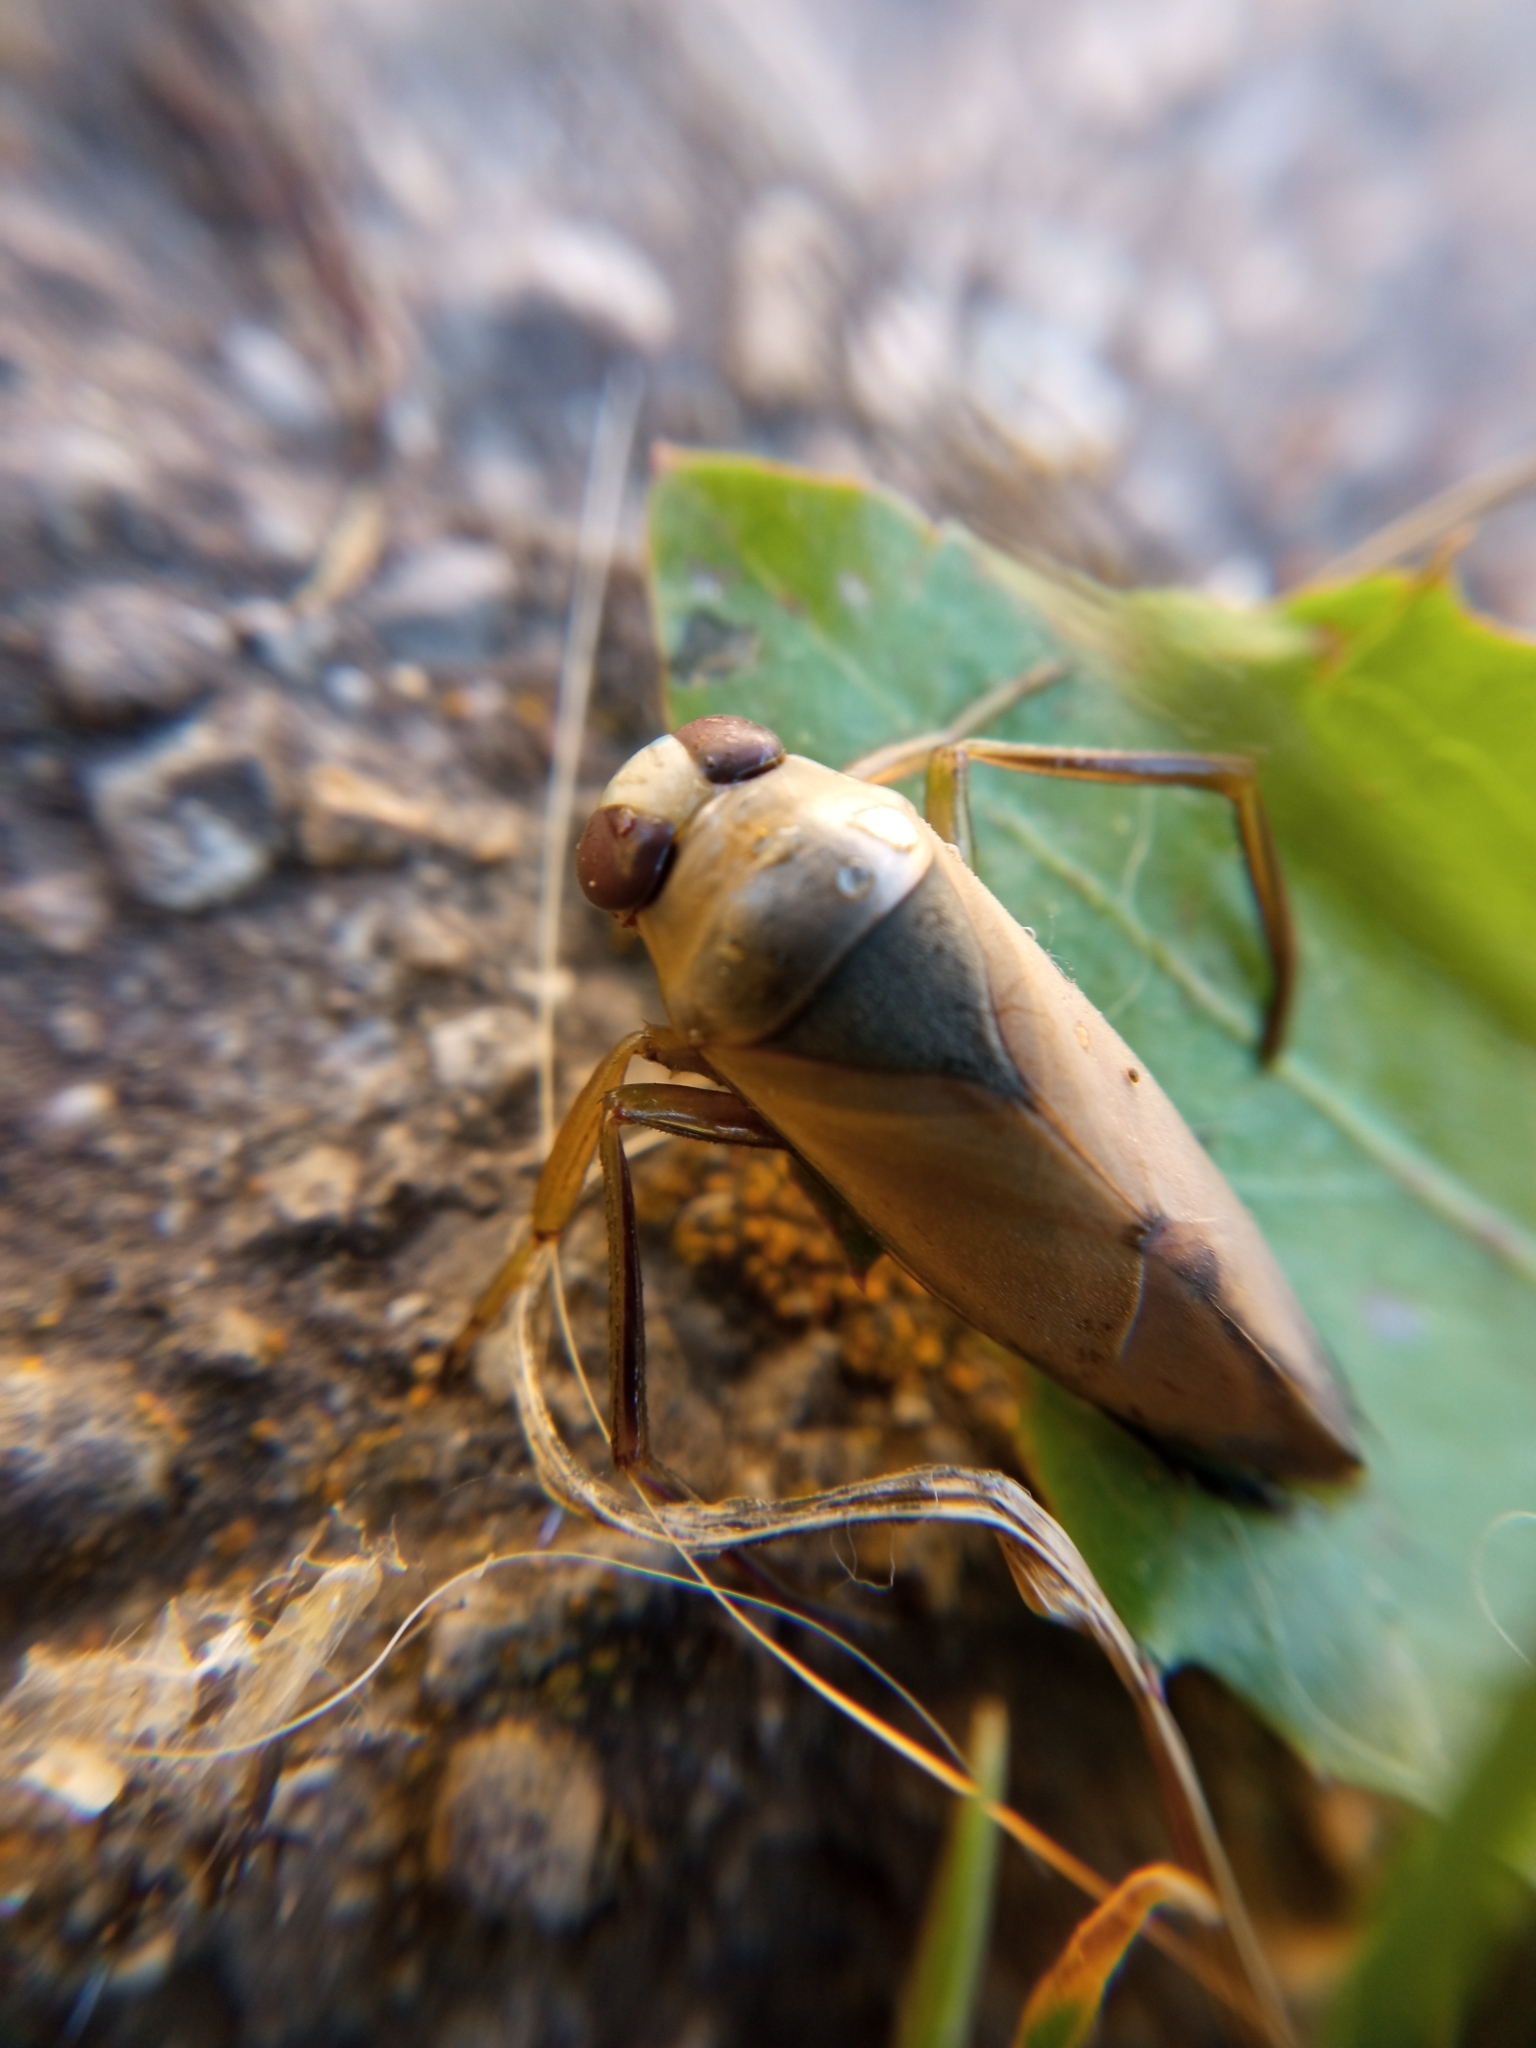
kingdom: Animalia
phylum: Arthropoda
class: Insecta
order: Hemiptera
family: Notonectidae
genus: Notonecta
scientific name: Notonecta glauca
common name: Common water-boatman
